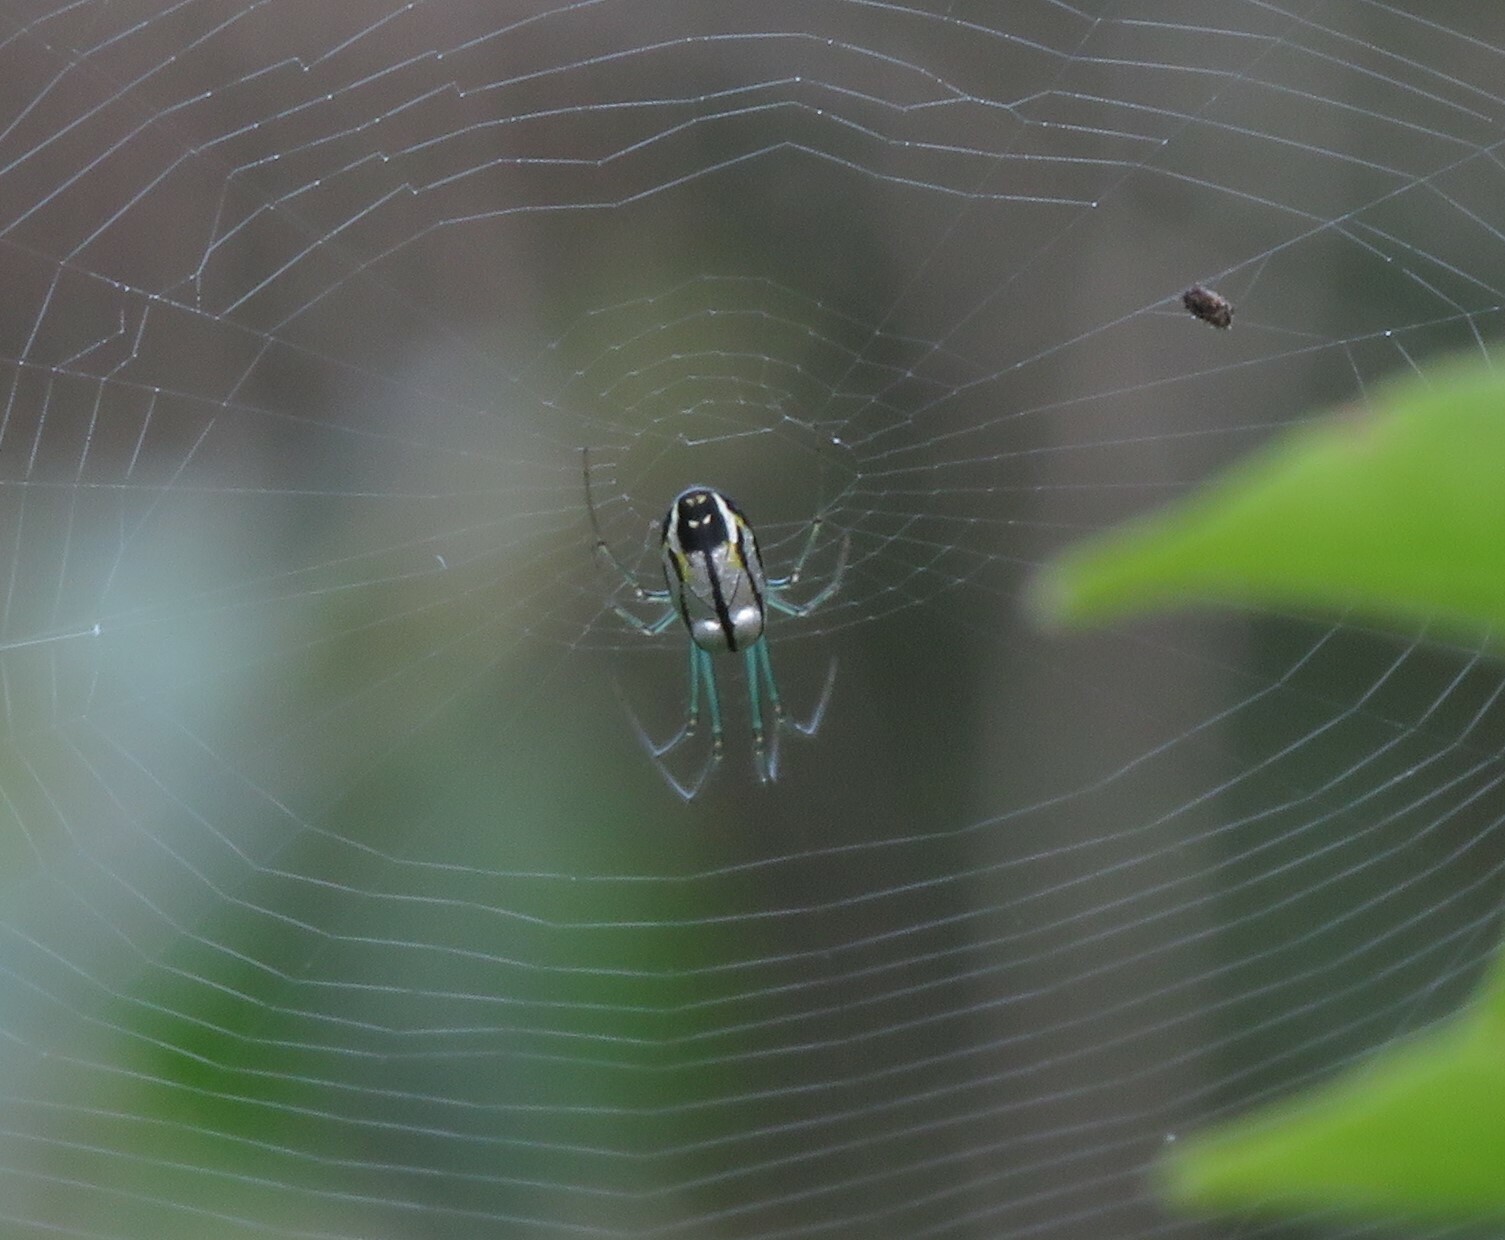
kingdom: Animalia
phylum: Arthropoda
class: Arachnida
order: Araneae
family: Tetragnathidae
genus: Leucauge
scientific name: Leucauge volupis
